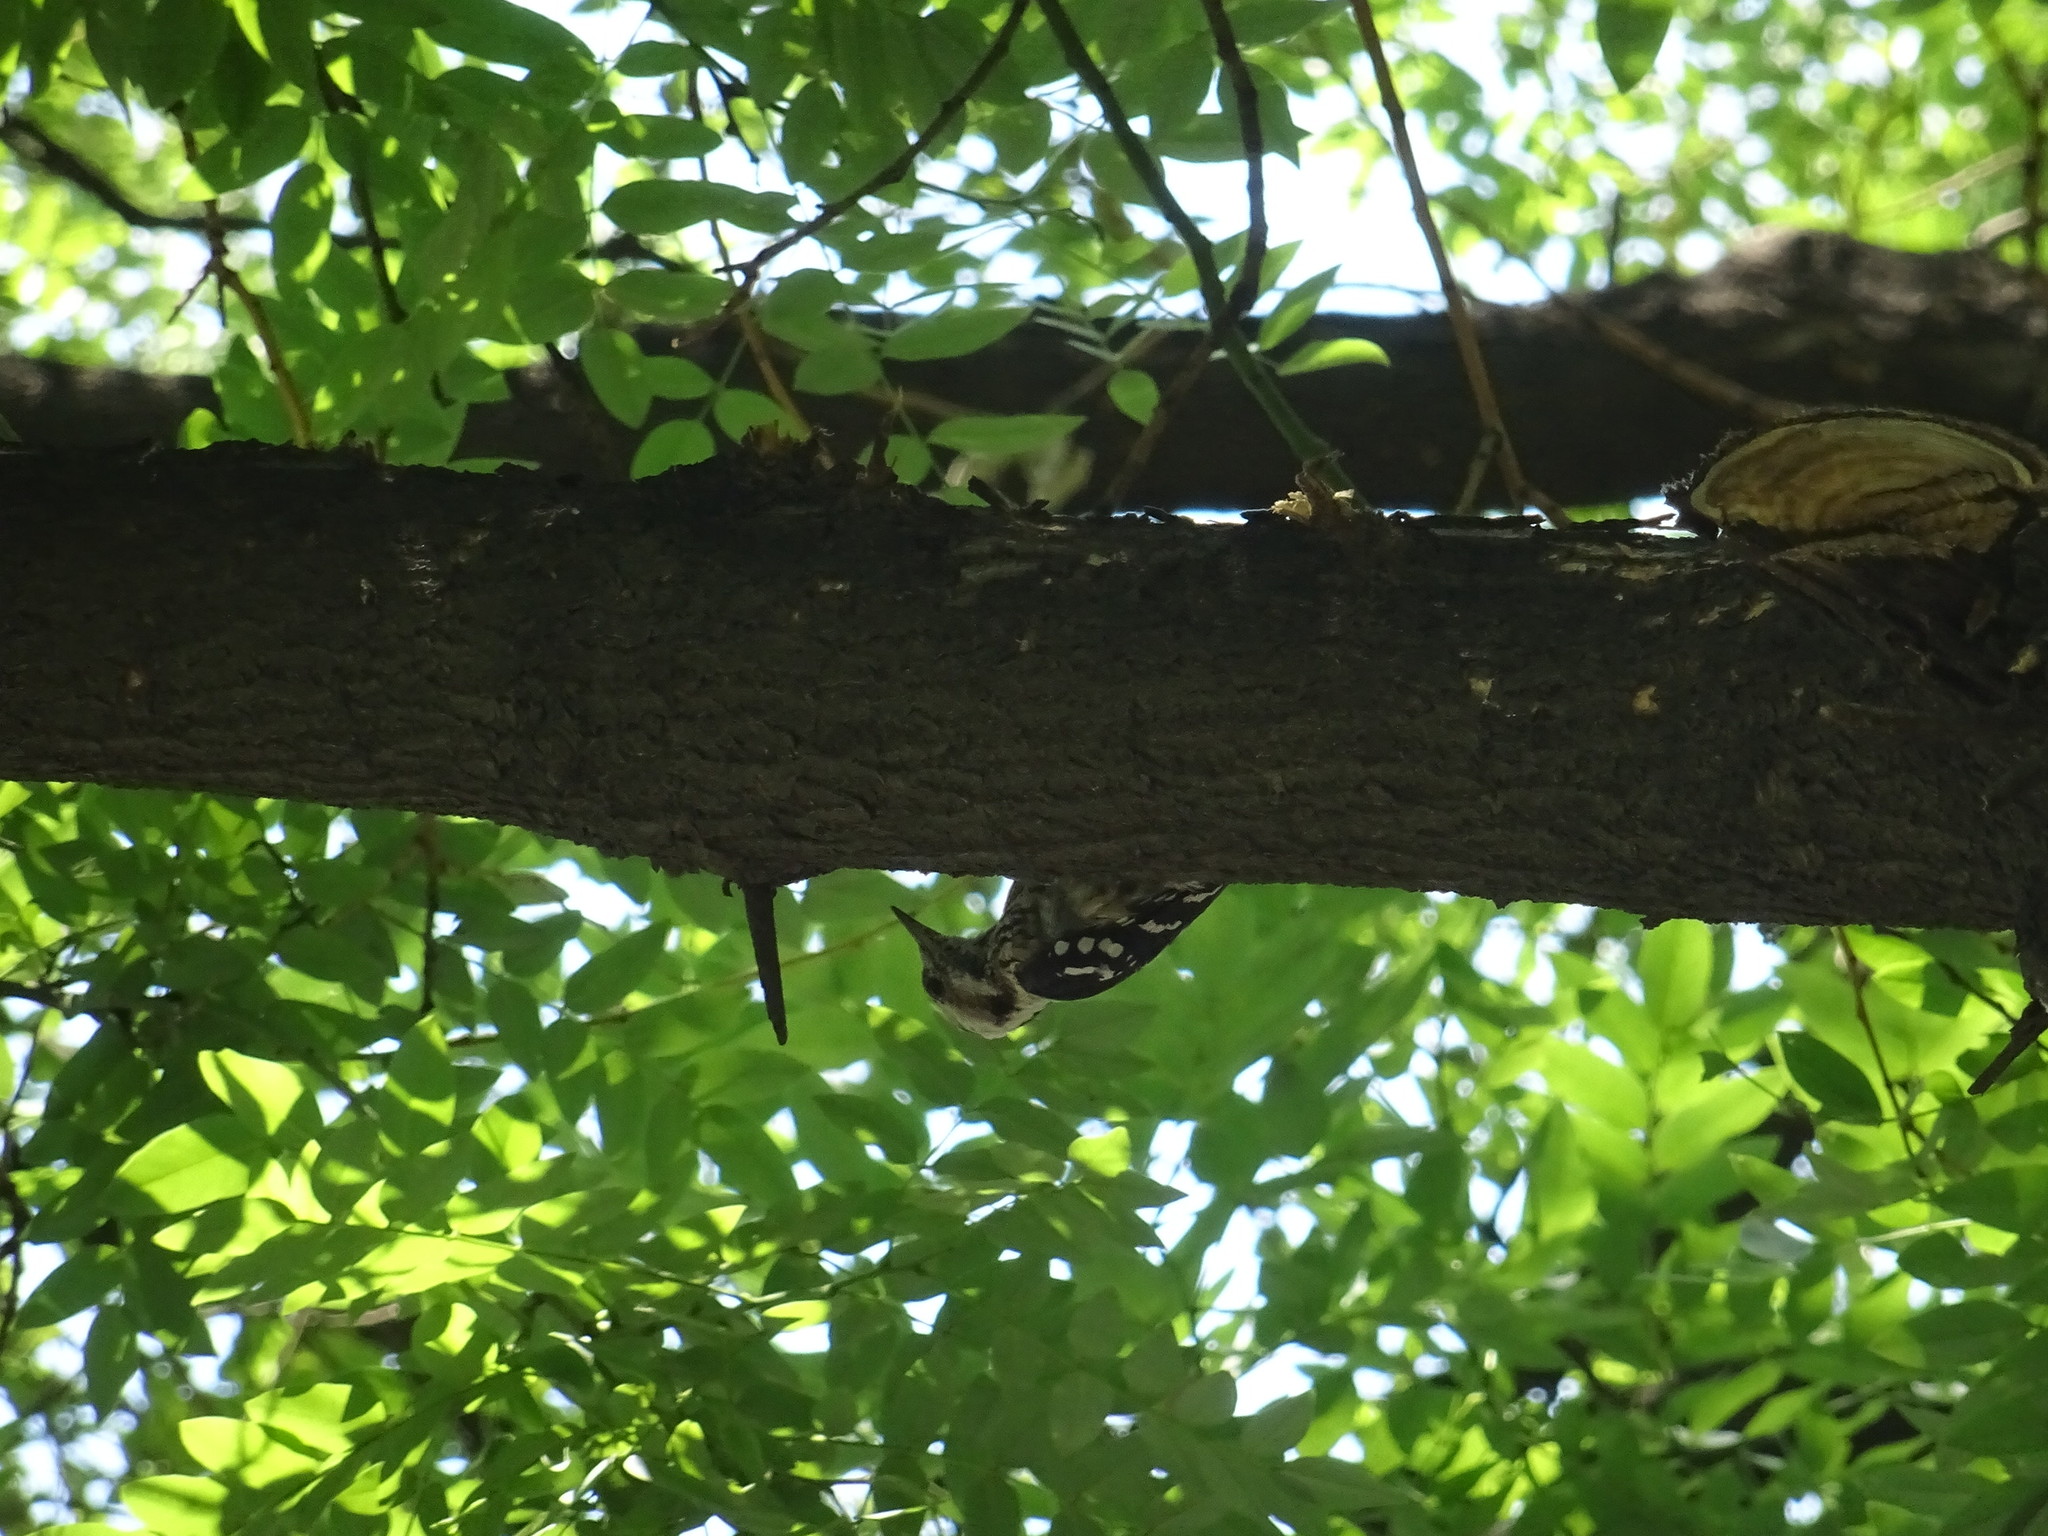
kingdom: Animalia
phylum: Chordata
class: Aves
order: Piciformes
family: Picidae
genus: Yungipicus
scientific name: Yungipicus canicapillus
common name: Grey-capped pygmy woodpecker
